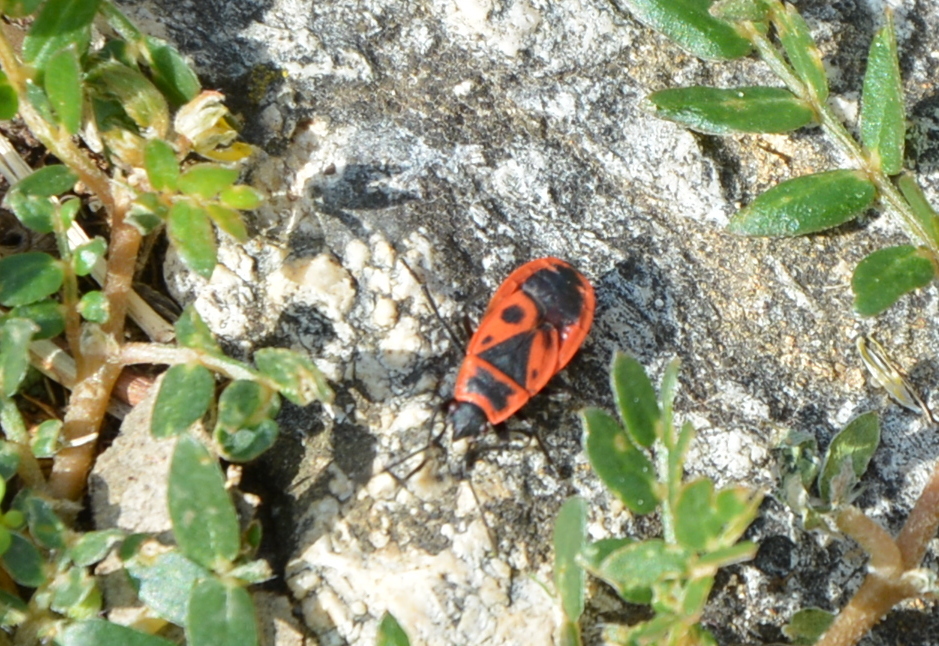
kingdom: Animalia
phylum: Arthropoda
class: Insecta
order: Hemiptera
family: Pyrrhocoridae
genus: Pyrrhocoris
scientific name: Pyrrhocoris apterus
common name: Firebug
